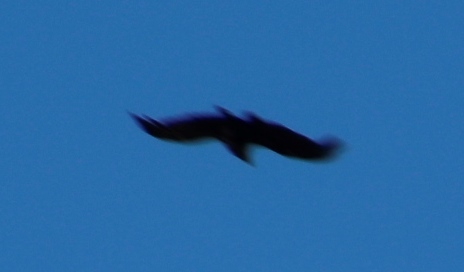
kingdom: Animalia
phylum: Chordata
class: Aves
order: Passeriformes
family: Corvidae
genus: Corvus
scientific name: Corvus albicollis
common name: White-necked raven
